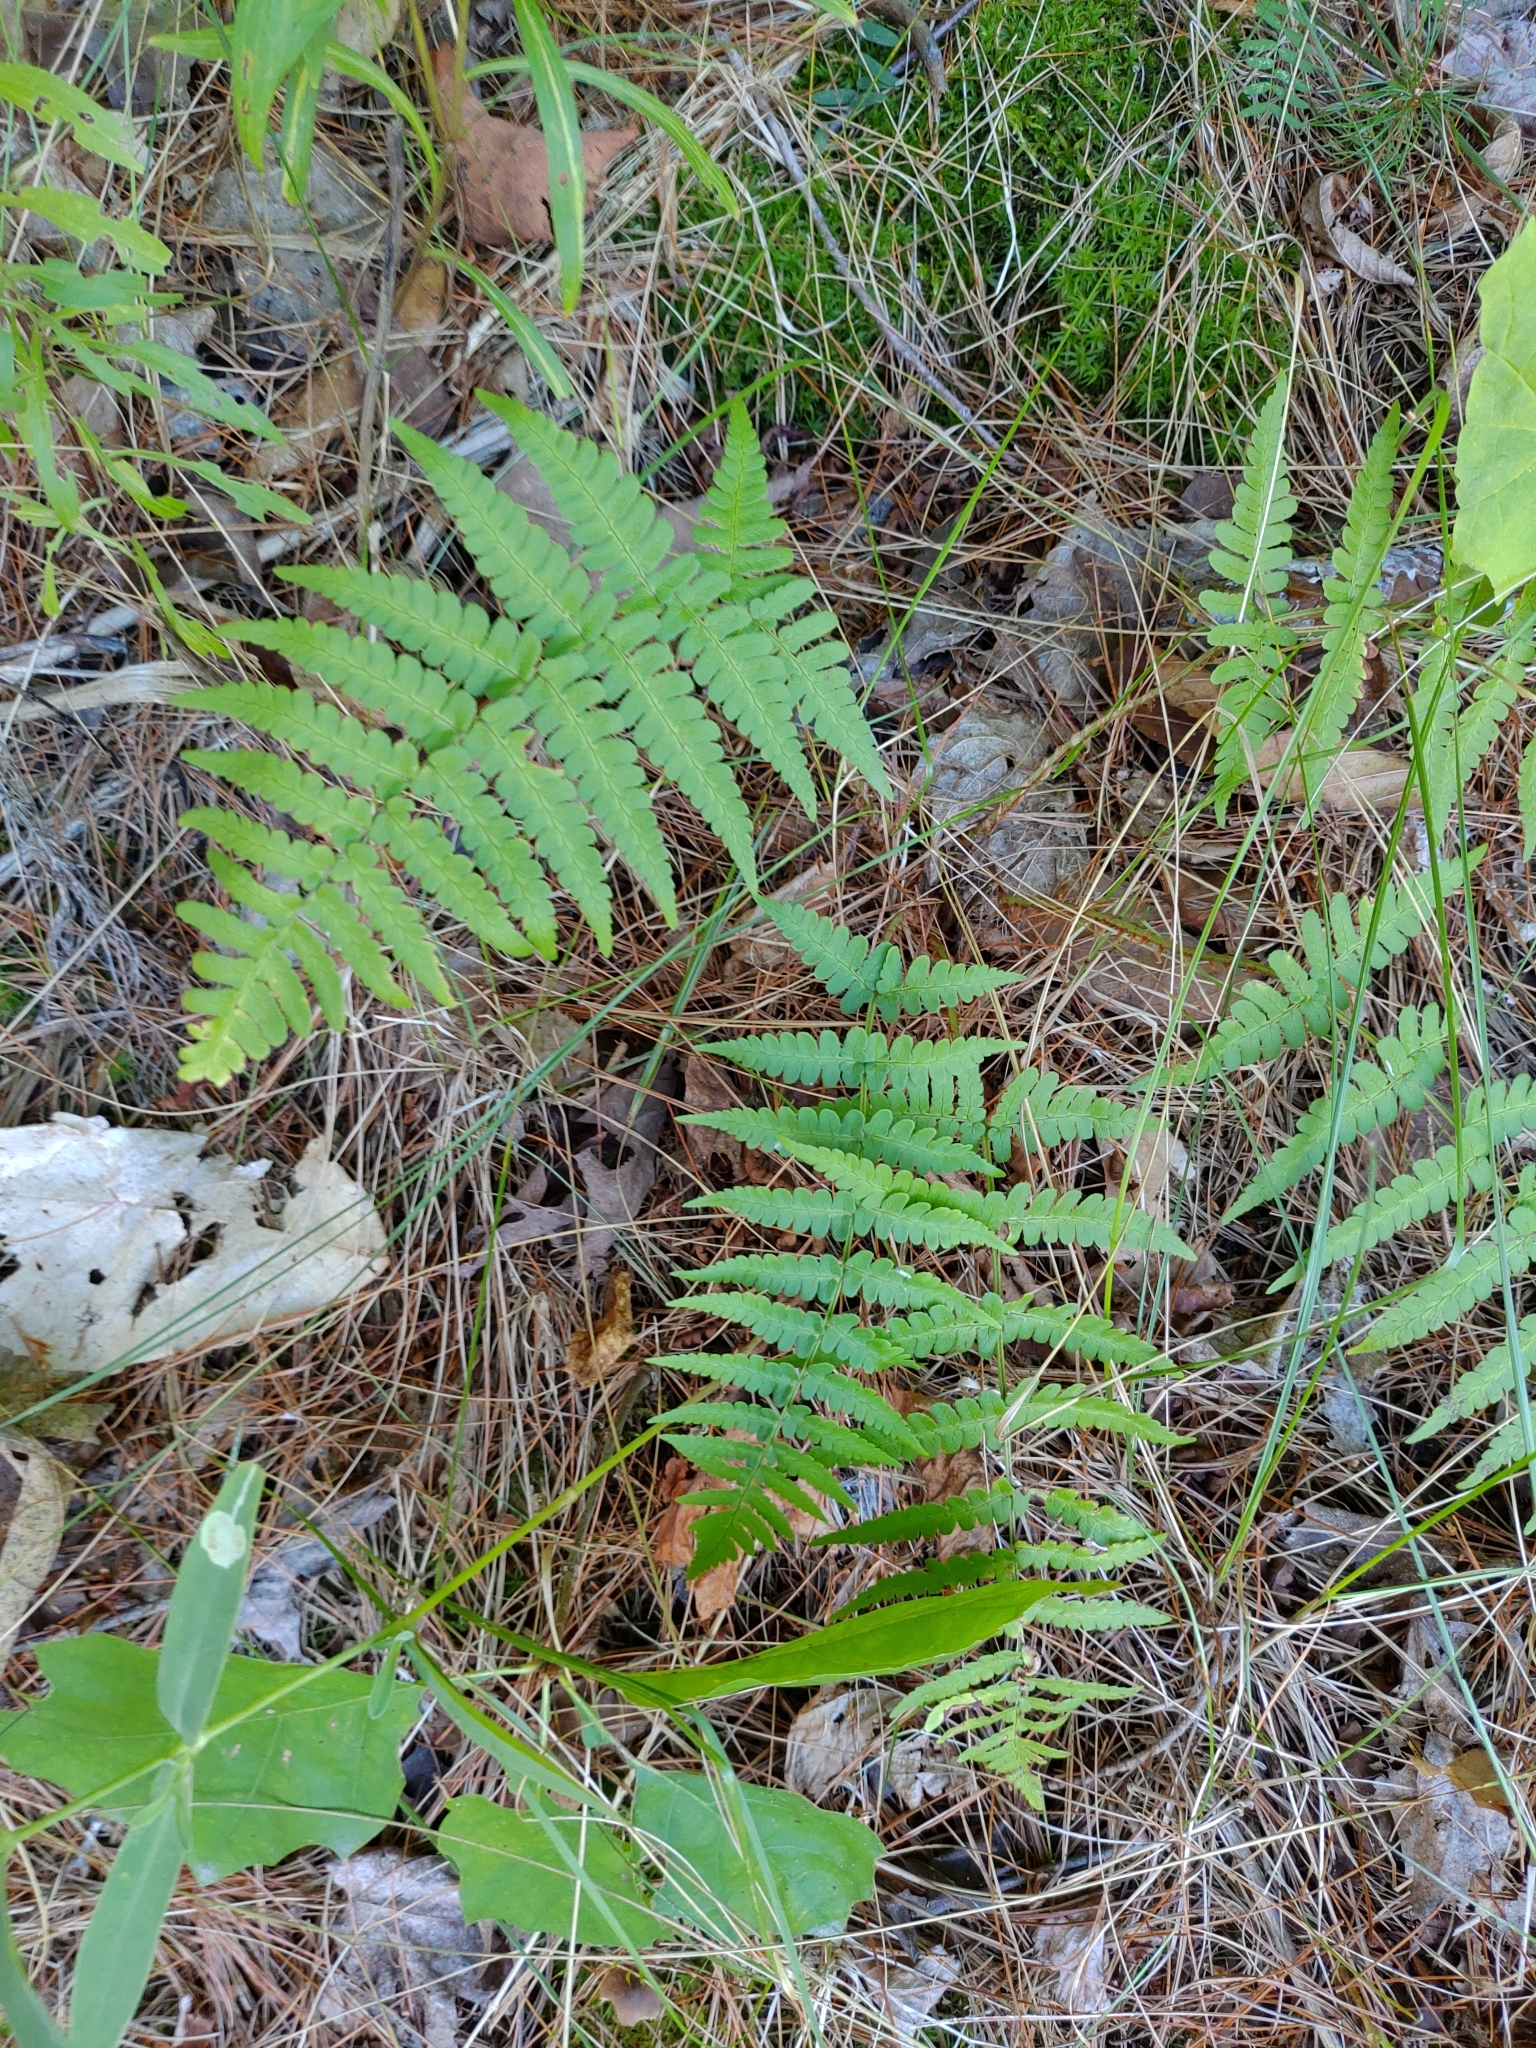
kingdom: Plantae
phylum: Tracheophyta
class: Polypodiopsida
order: Polypodiales
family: Dryopteridaceae
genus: Dryopteris
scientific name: Dryopteris marginalis
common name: Marginal wood fern
